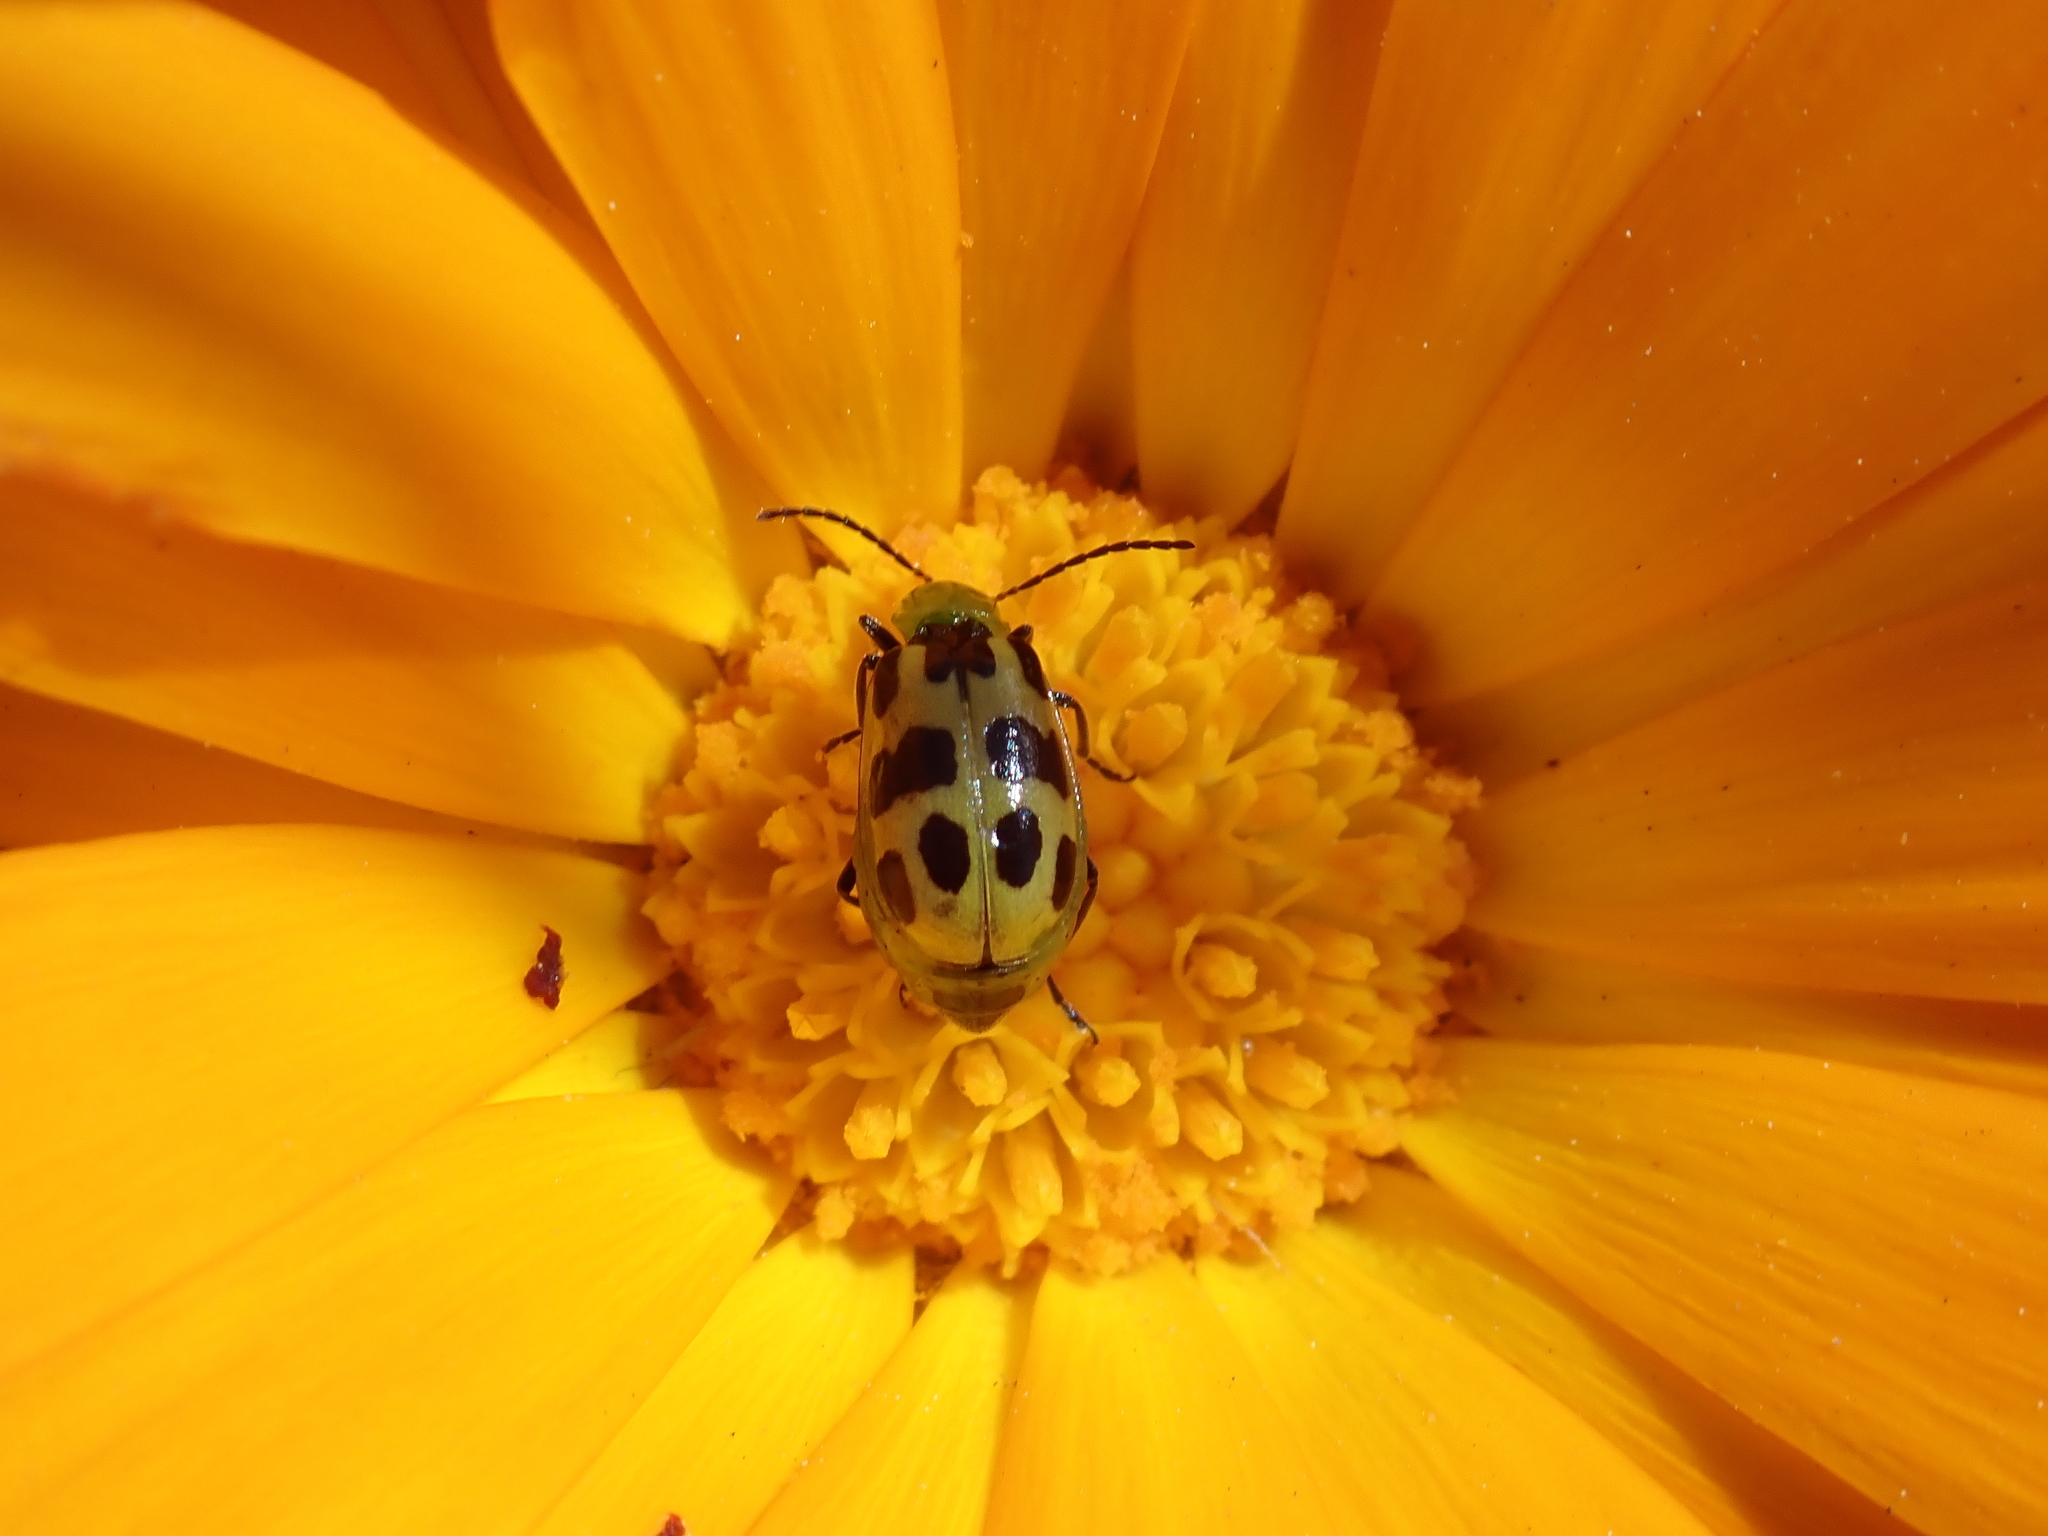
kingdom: Animalia
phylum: Arthropoda
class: Insecta
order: Coleoptera
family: Chrysomelidae
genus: Diabrotica
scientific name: Diabrotica undecimpunctata
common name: Spotted cucumber beetle
